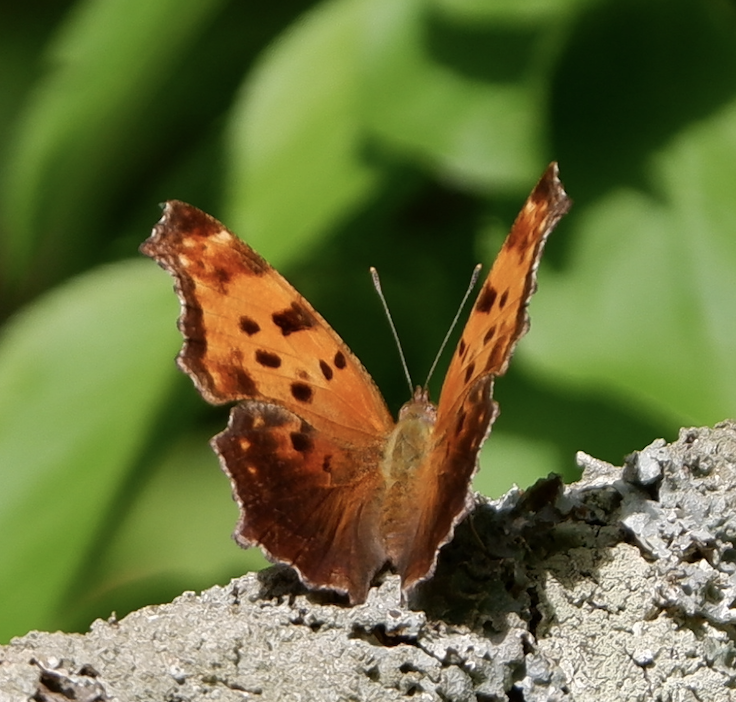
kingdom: Animalia
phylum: Arthropoda
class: Insecta
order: Lepidoptera
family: Nymphalidae
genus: Polygonia
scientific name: Polygonia comma
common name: Eastern comma
